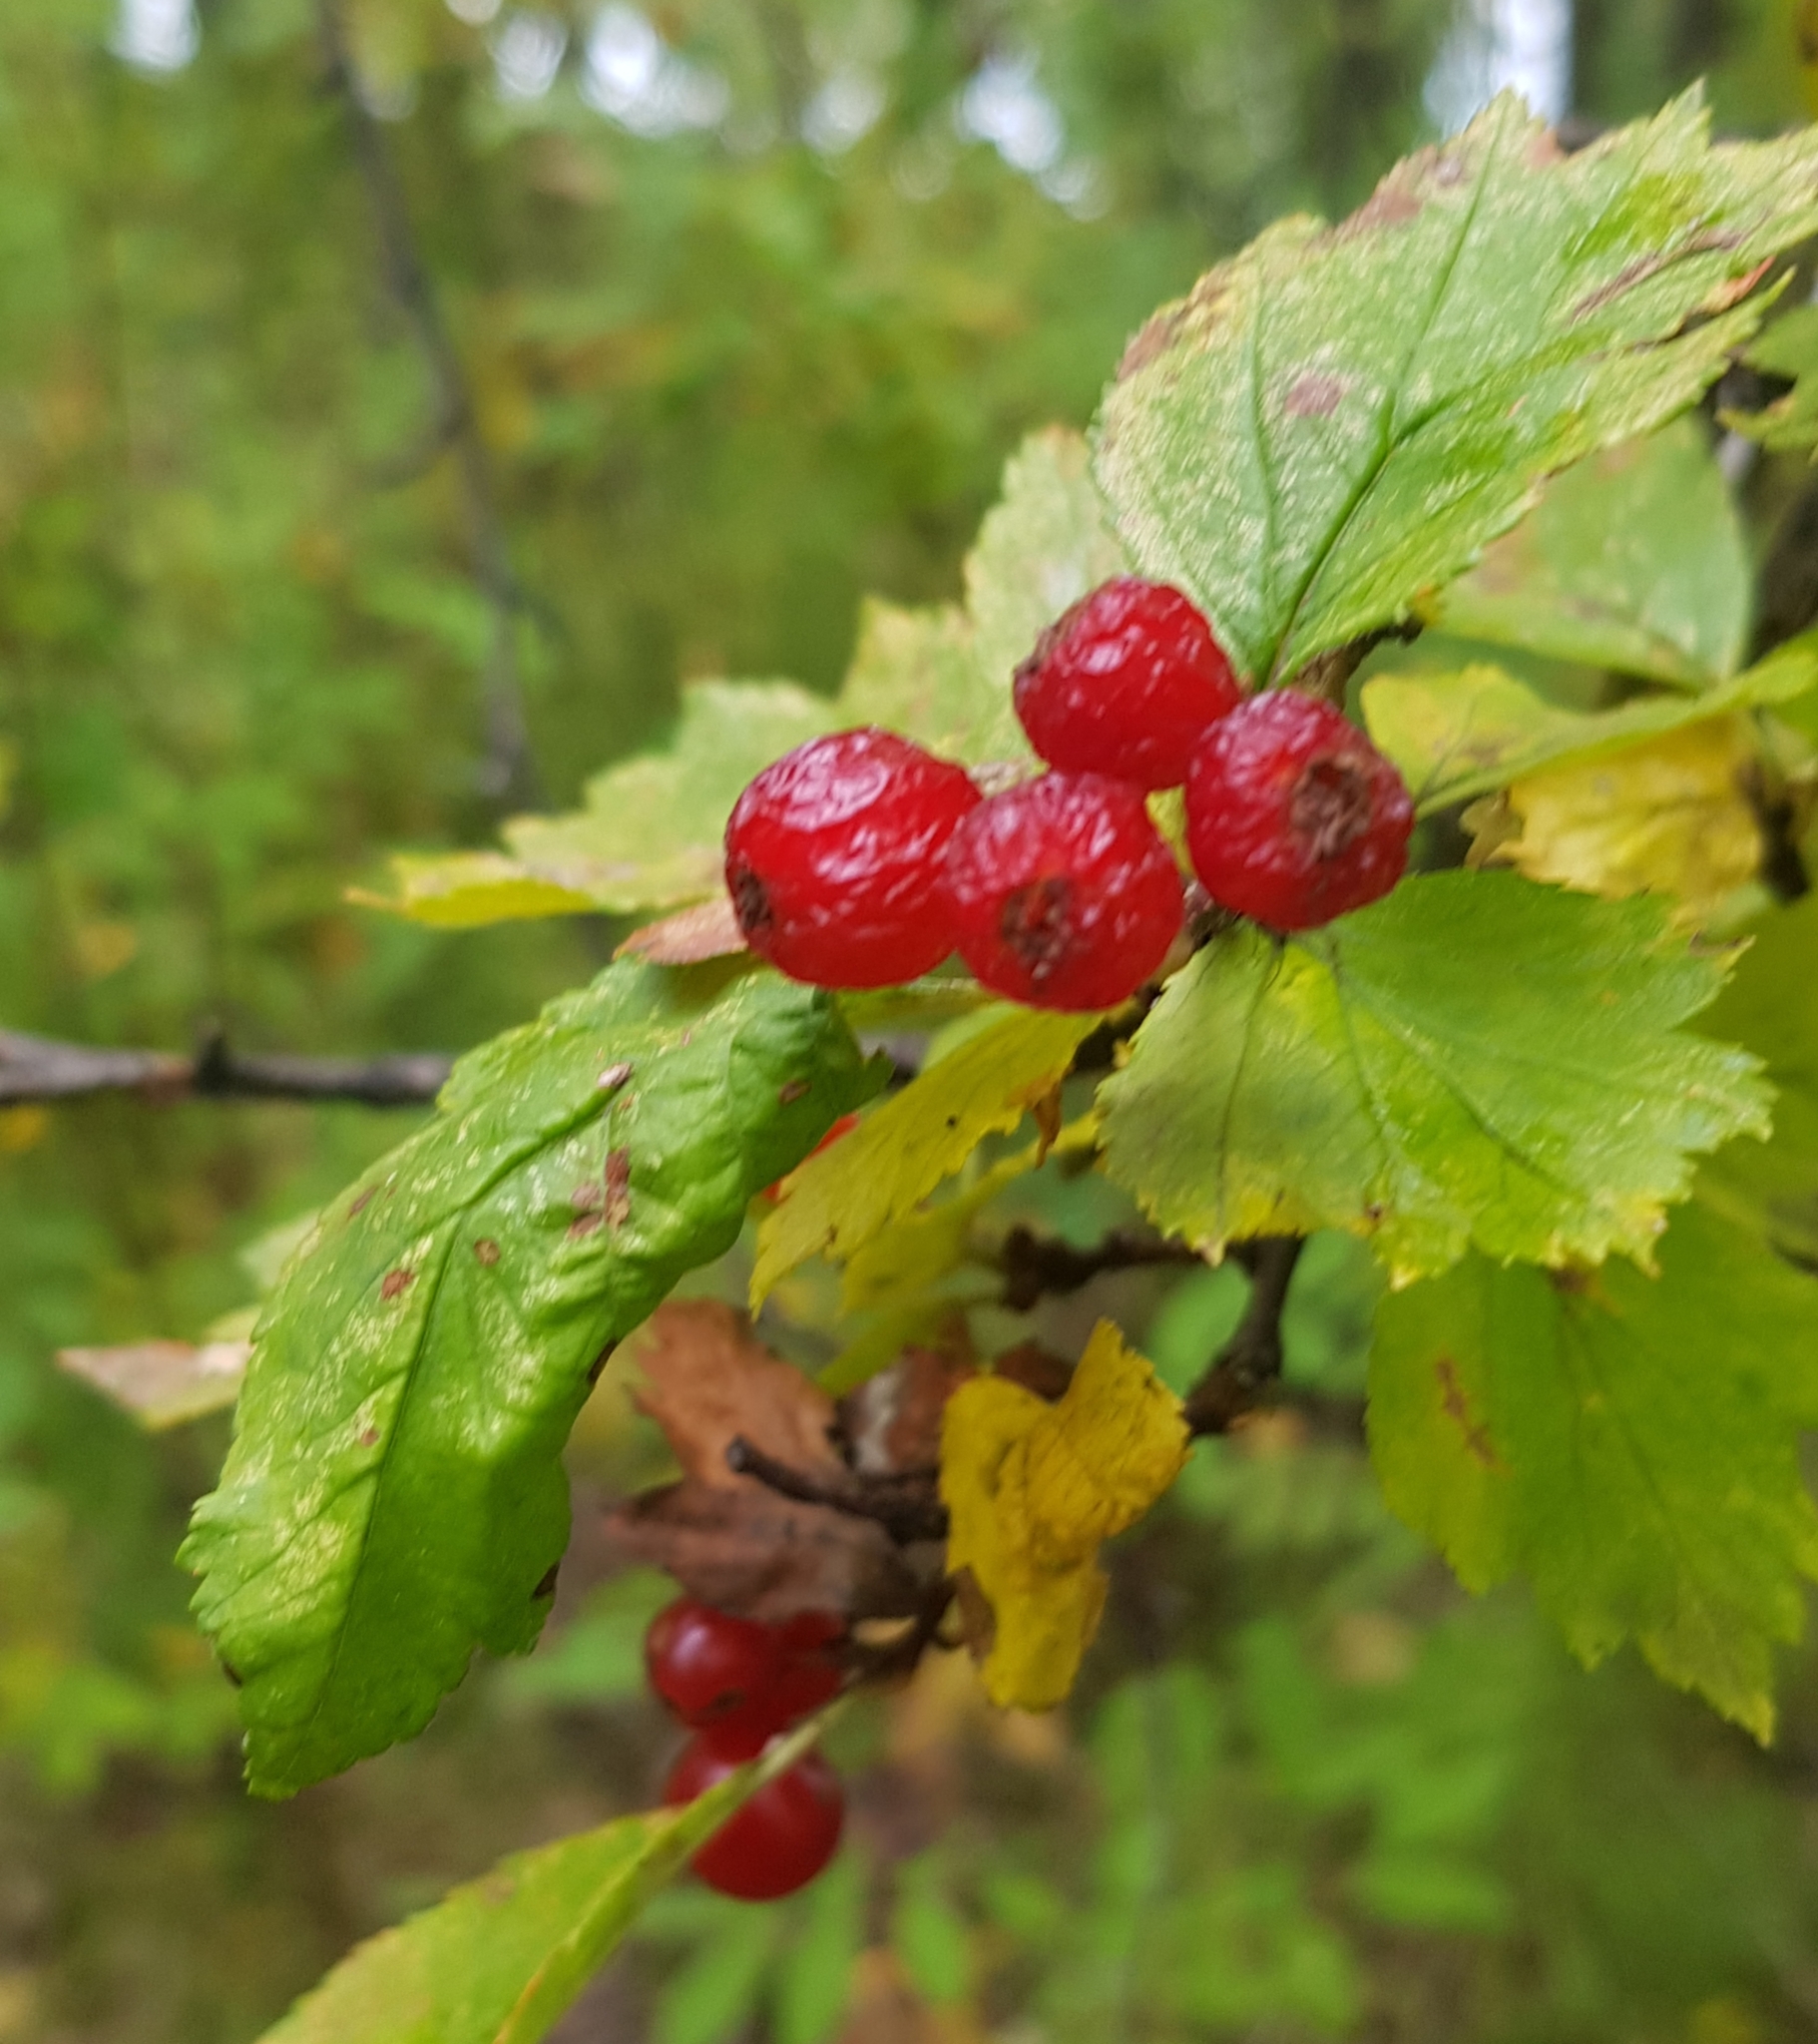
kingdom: Plantae
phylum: Tracheophyta
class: Magnoliopsida
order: Rosales
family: Rosaceae
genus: Crataegus
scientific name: Crataegus sanguinea
